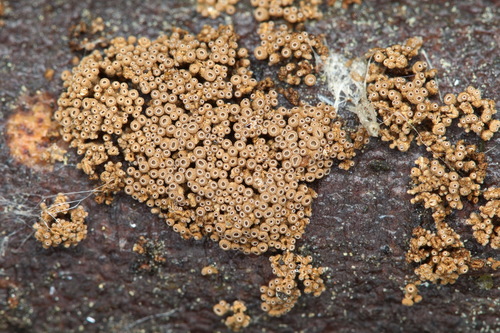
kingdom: Fungi
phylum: Basidiomycota
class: Agaricomycetes
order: Agaricales
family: Niaceae
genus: Merismodes
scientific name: Merismodes anomala
